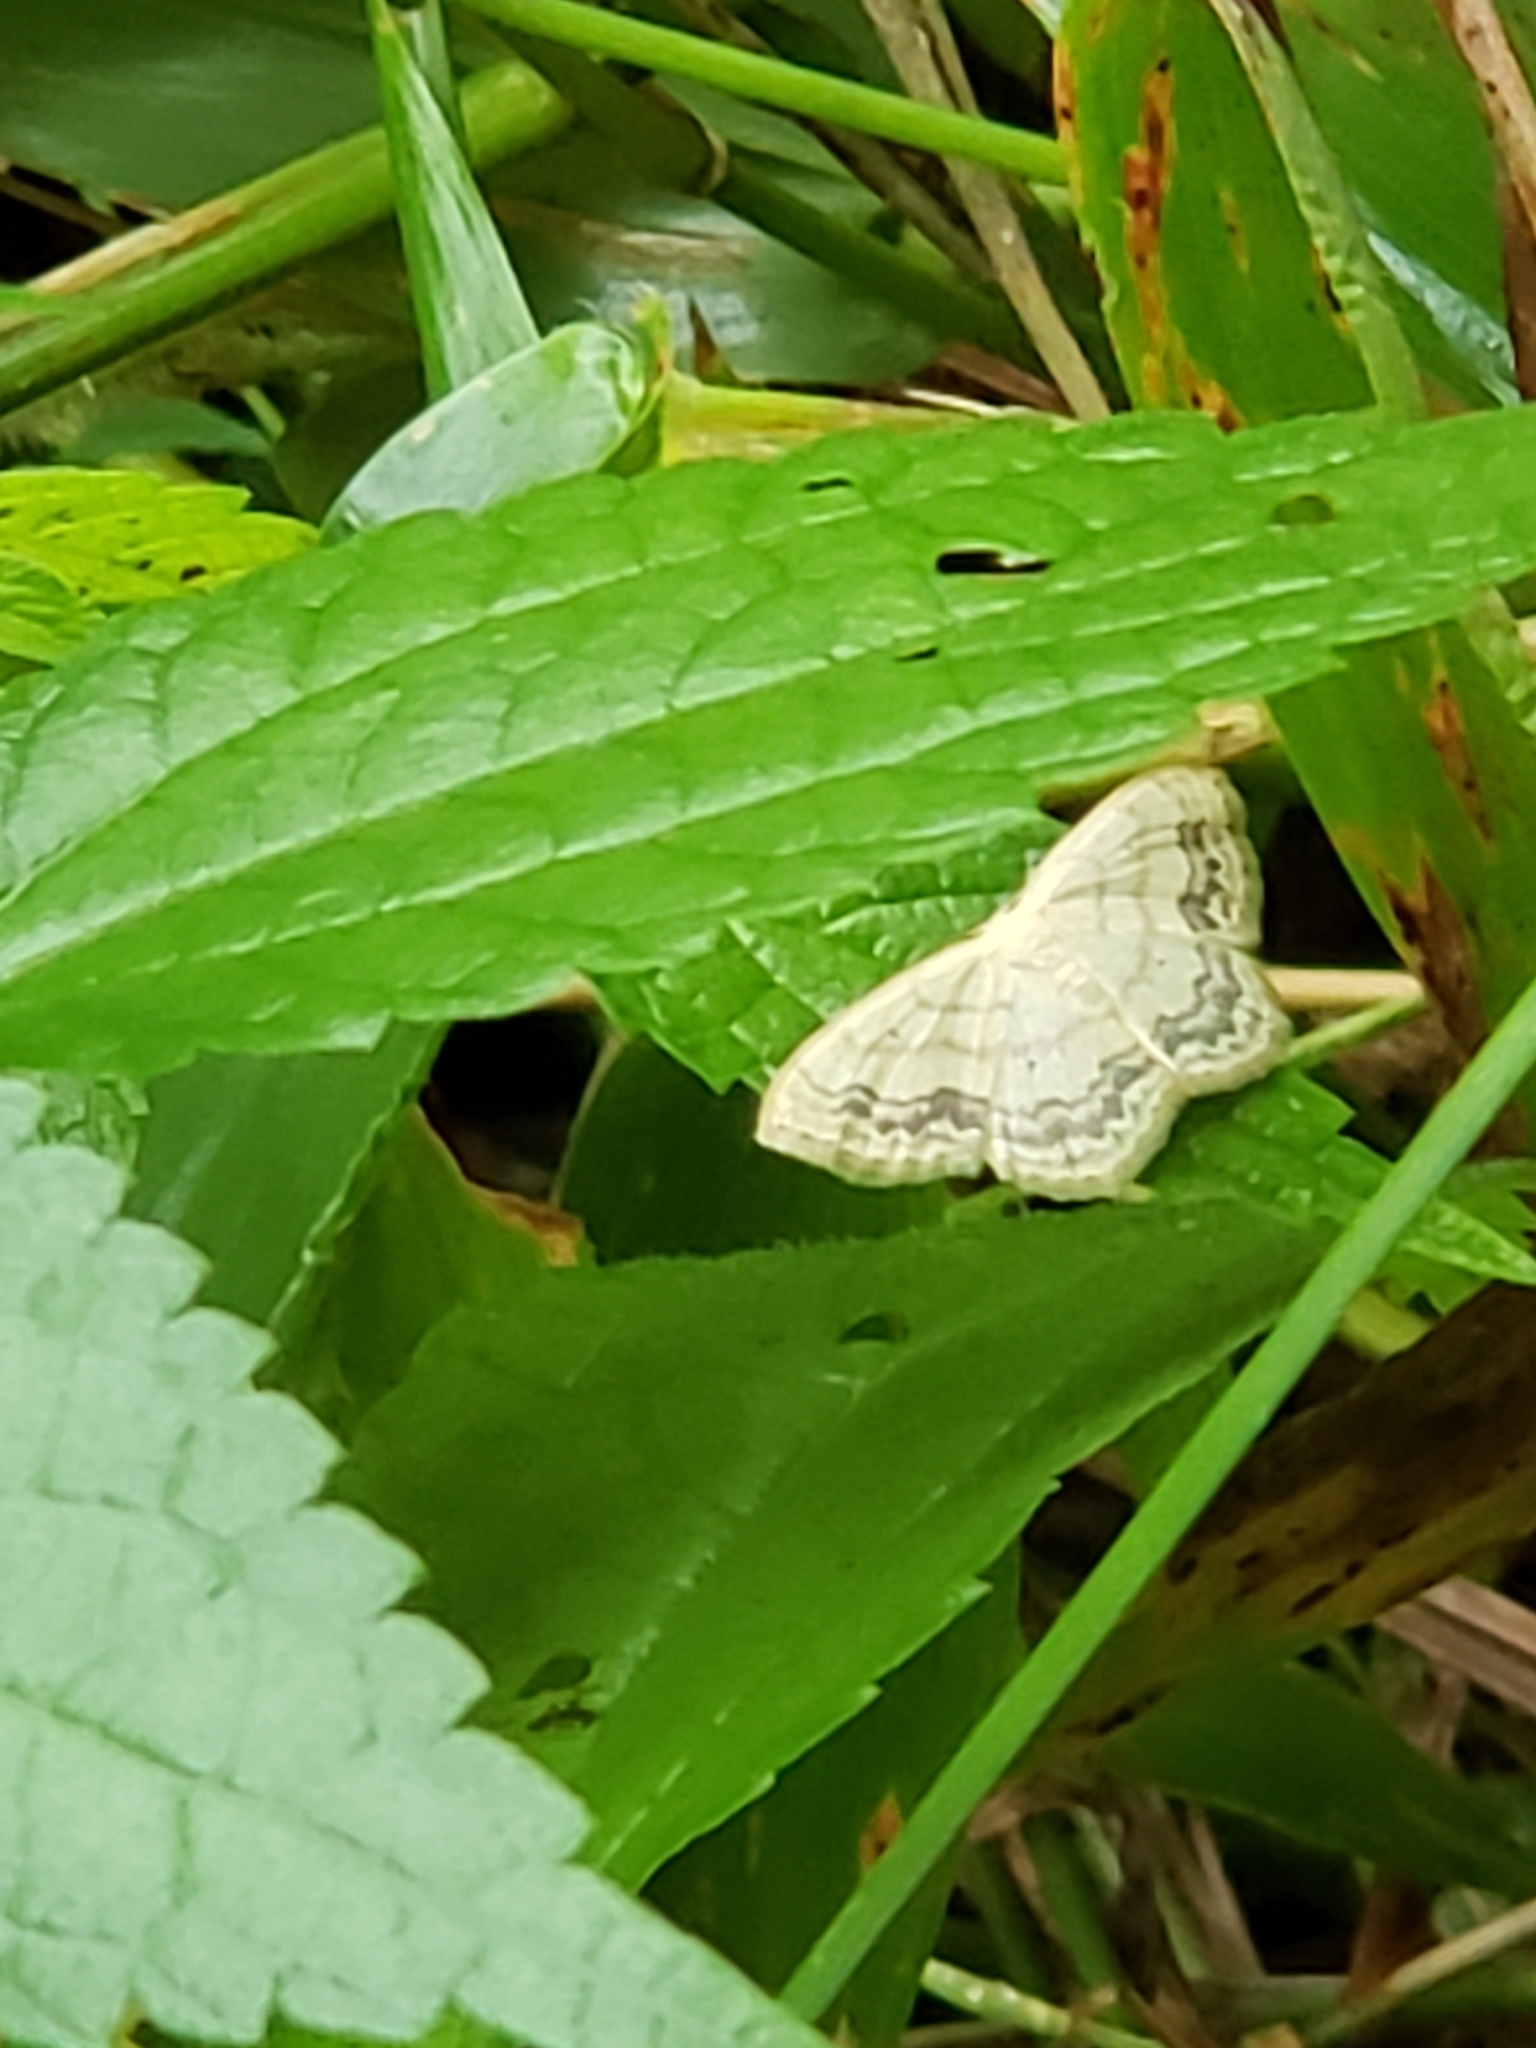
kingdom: Animalia
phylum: Arthropoda
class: Insecta
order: Lepidoptera
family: Geometridae
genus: Scopula
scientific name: Scopula limboundata
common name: Large lace border
